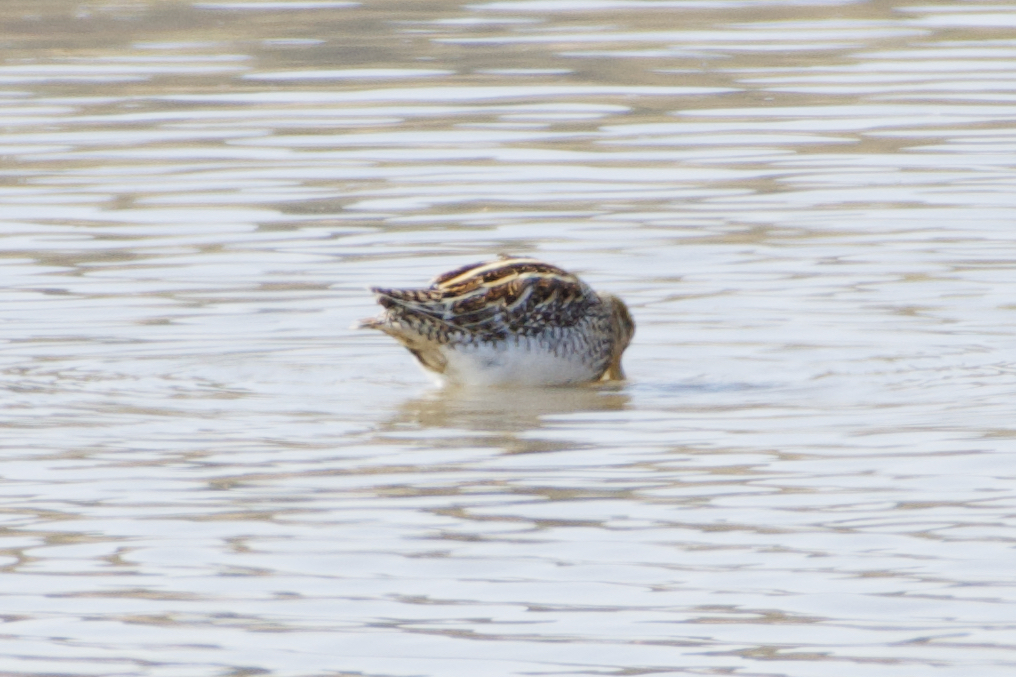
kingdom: Animalia
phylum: Chordata
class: Aves
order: Charadriiformes
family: Scolopacidae
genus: Gallinago
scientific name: Gallinago gallinago
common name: Common snipe
